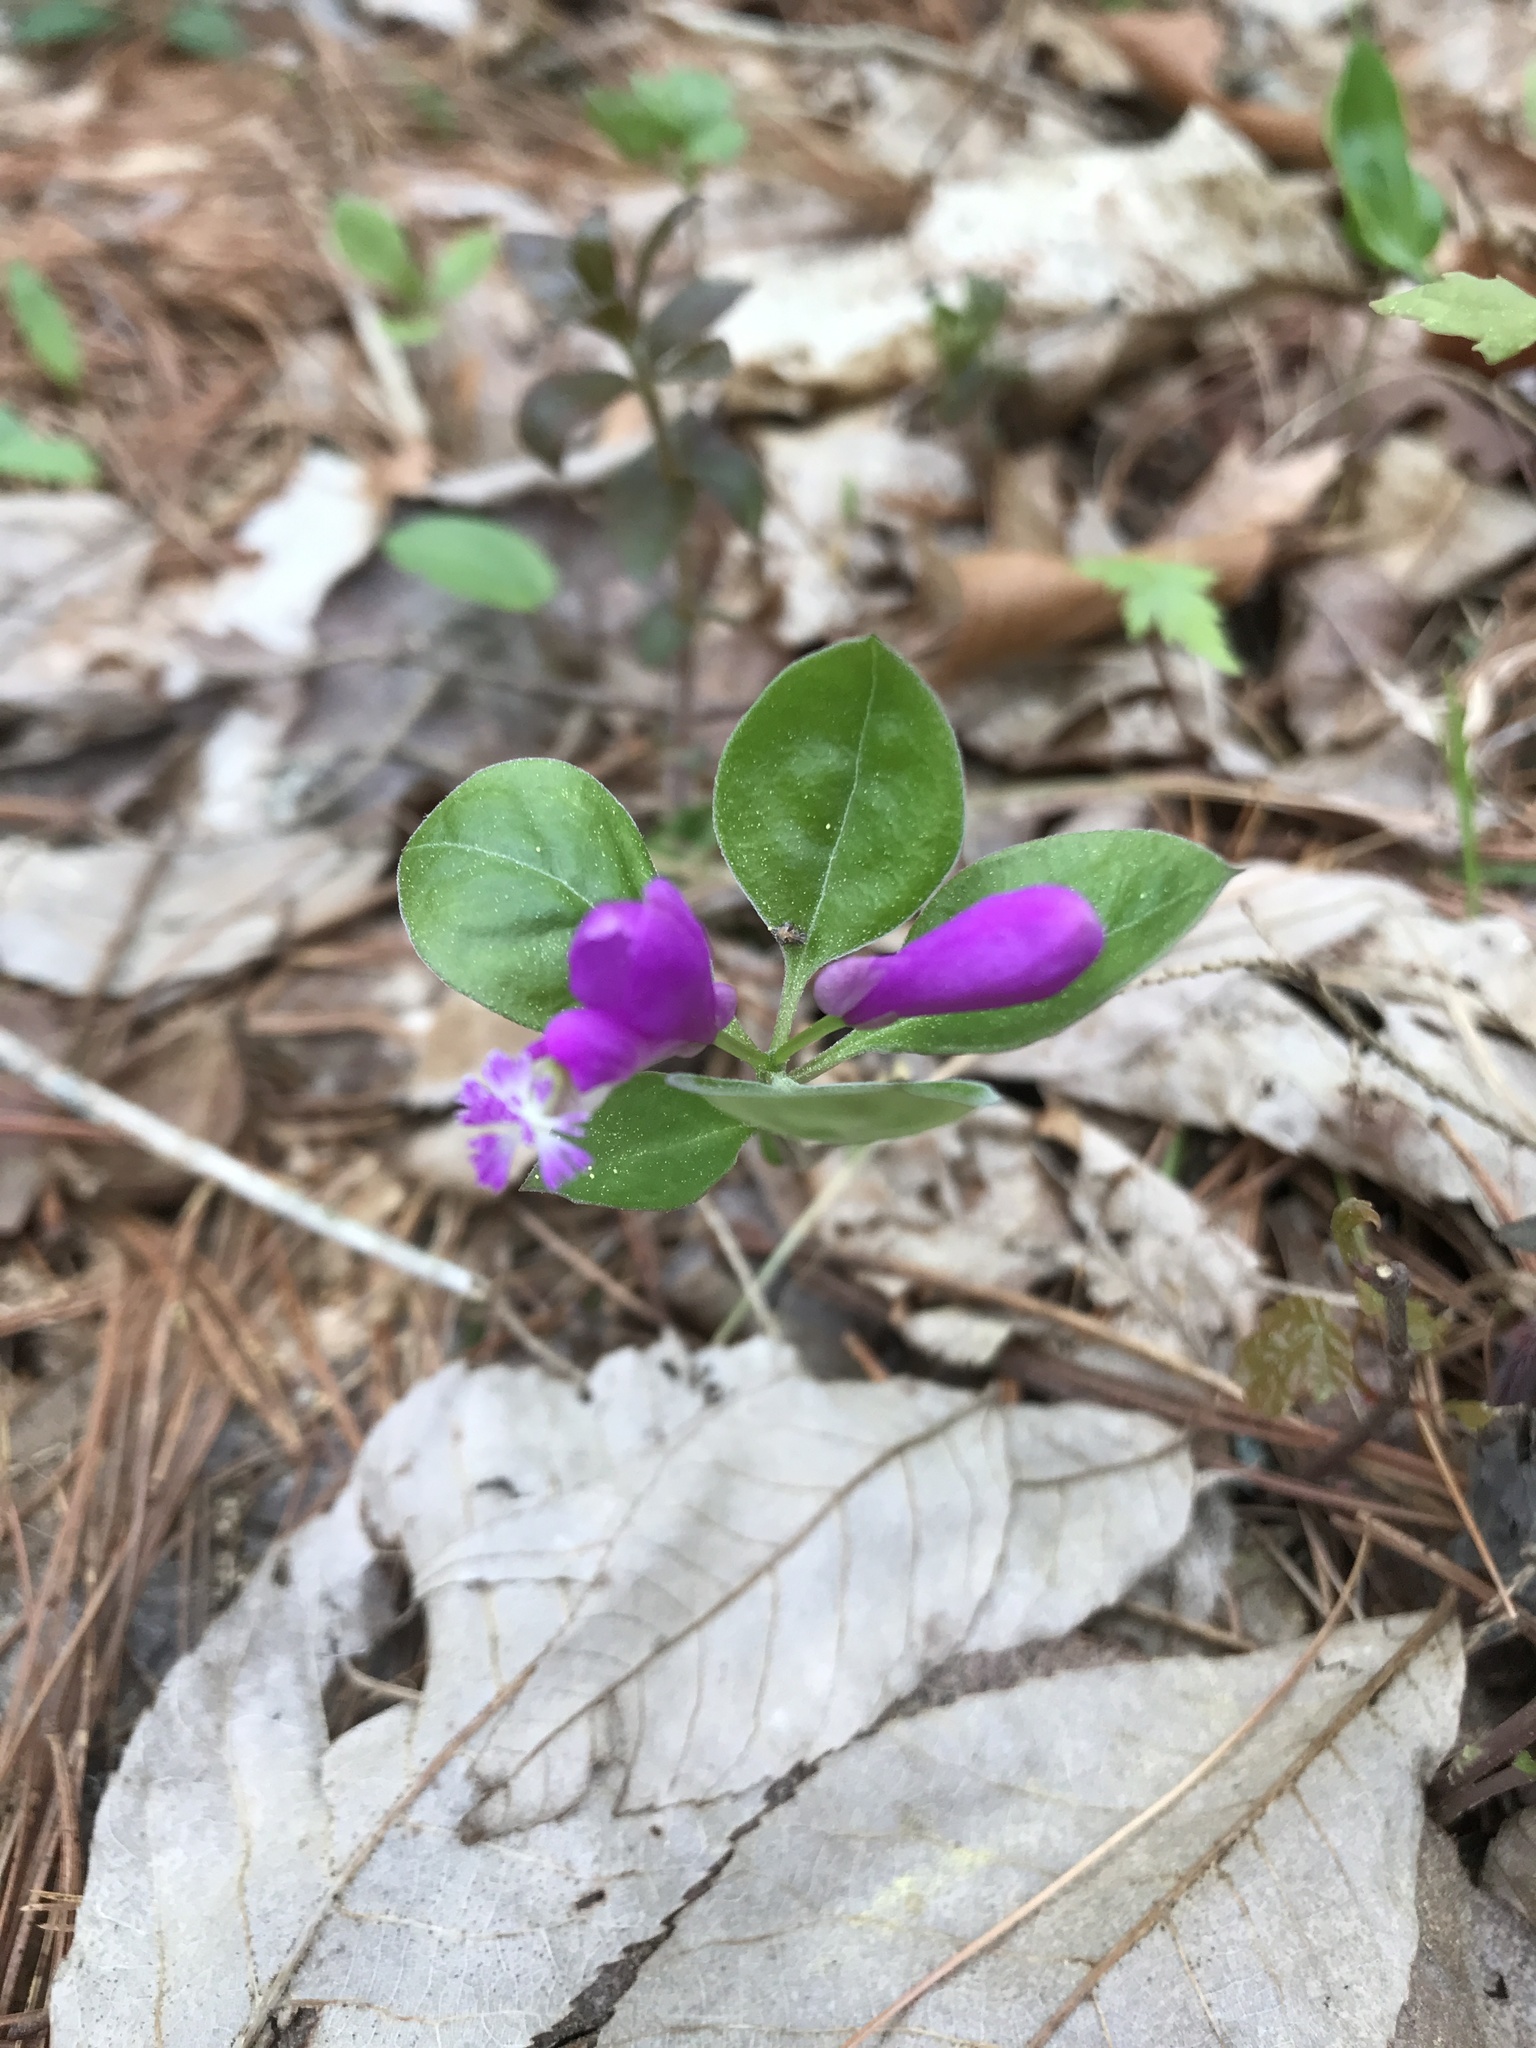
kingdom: Plantae
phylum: Tracheophyta
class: Magnoliopsida
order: Fabales
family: Polygalaceae
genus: Polygaloides
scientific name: Polygaloides paucifolia
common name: Bird-on-the-wing
